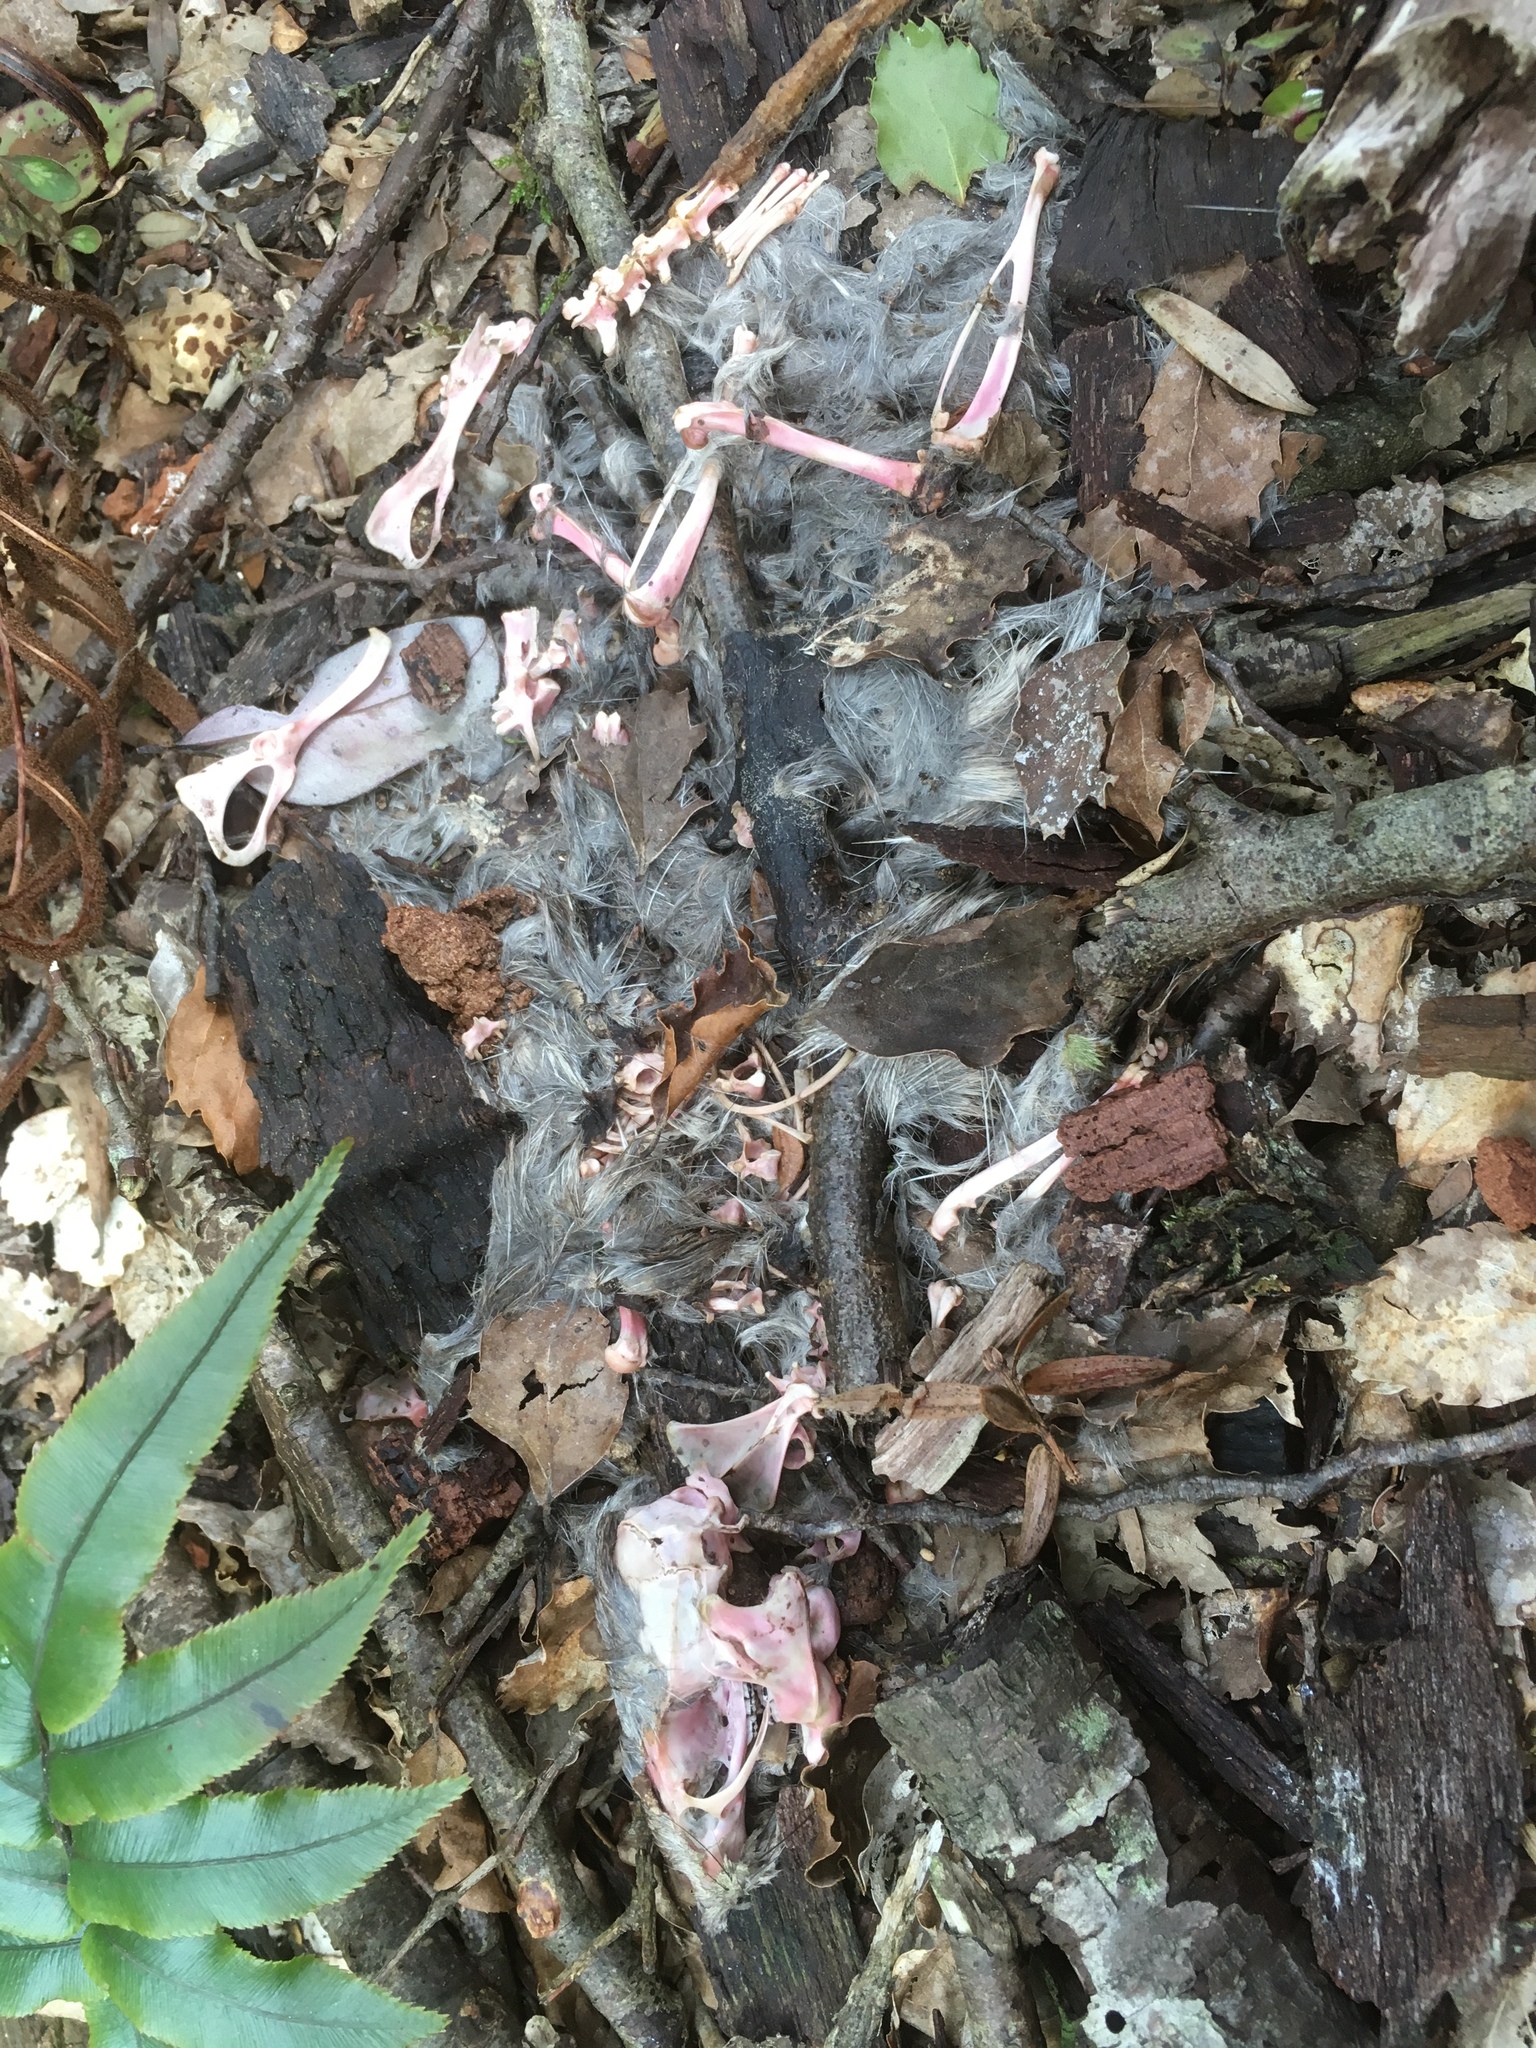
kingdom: Animalia
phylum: Chordata
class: Mammalia
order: Rodentia
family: Muridae
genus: Rattus
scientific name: Rattus
